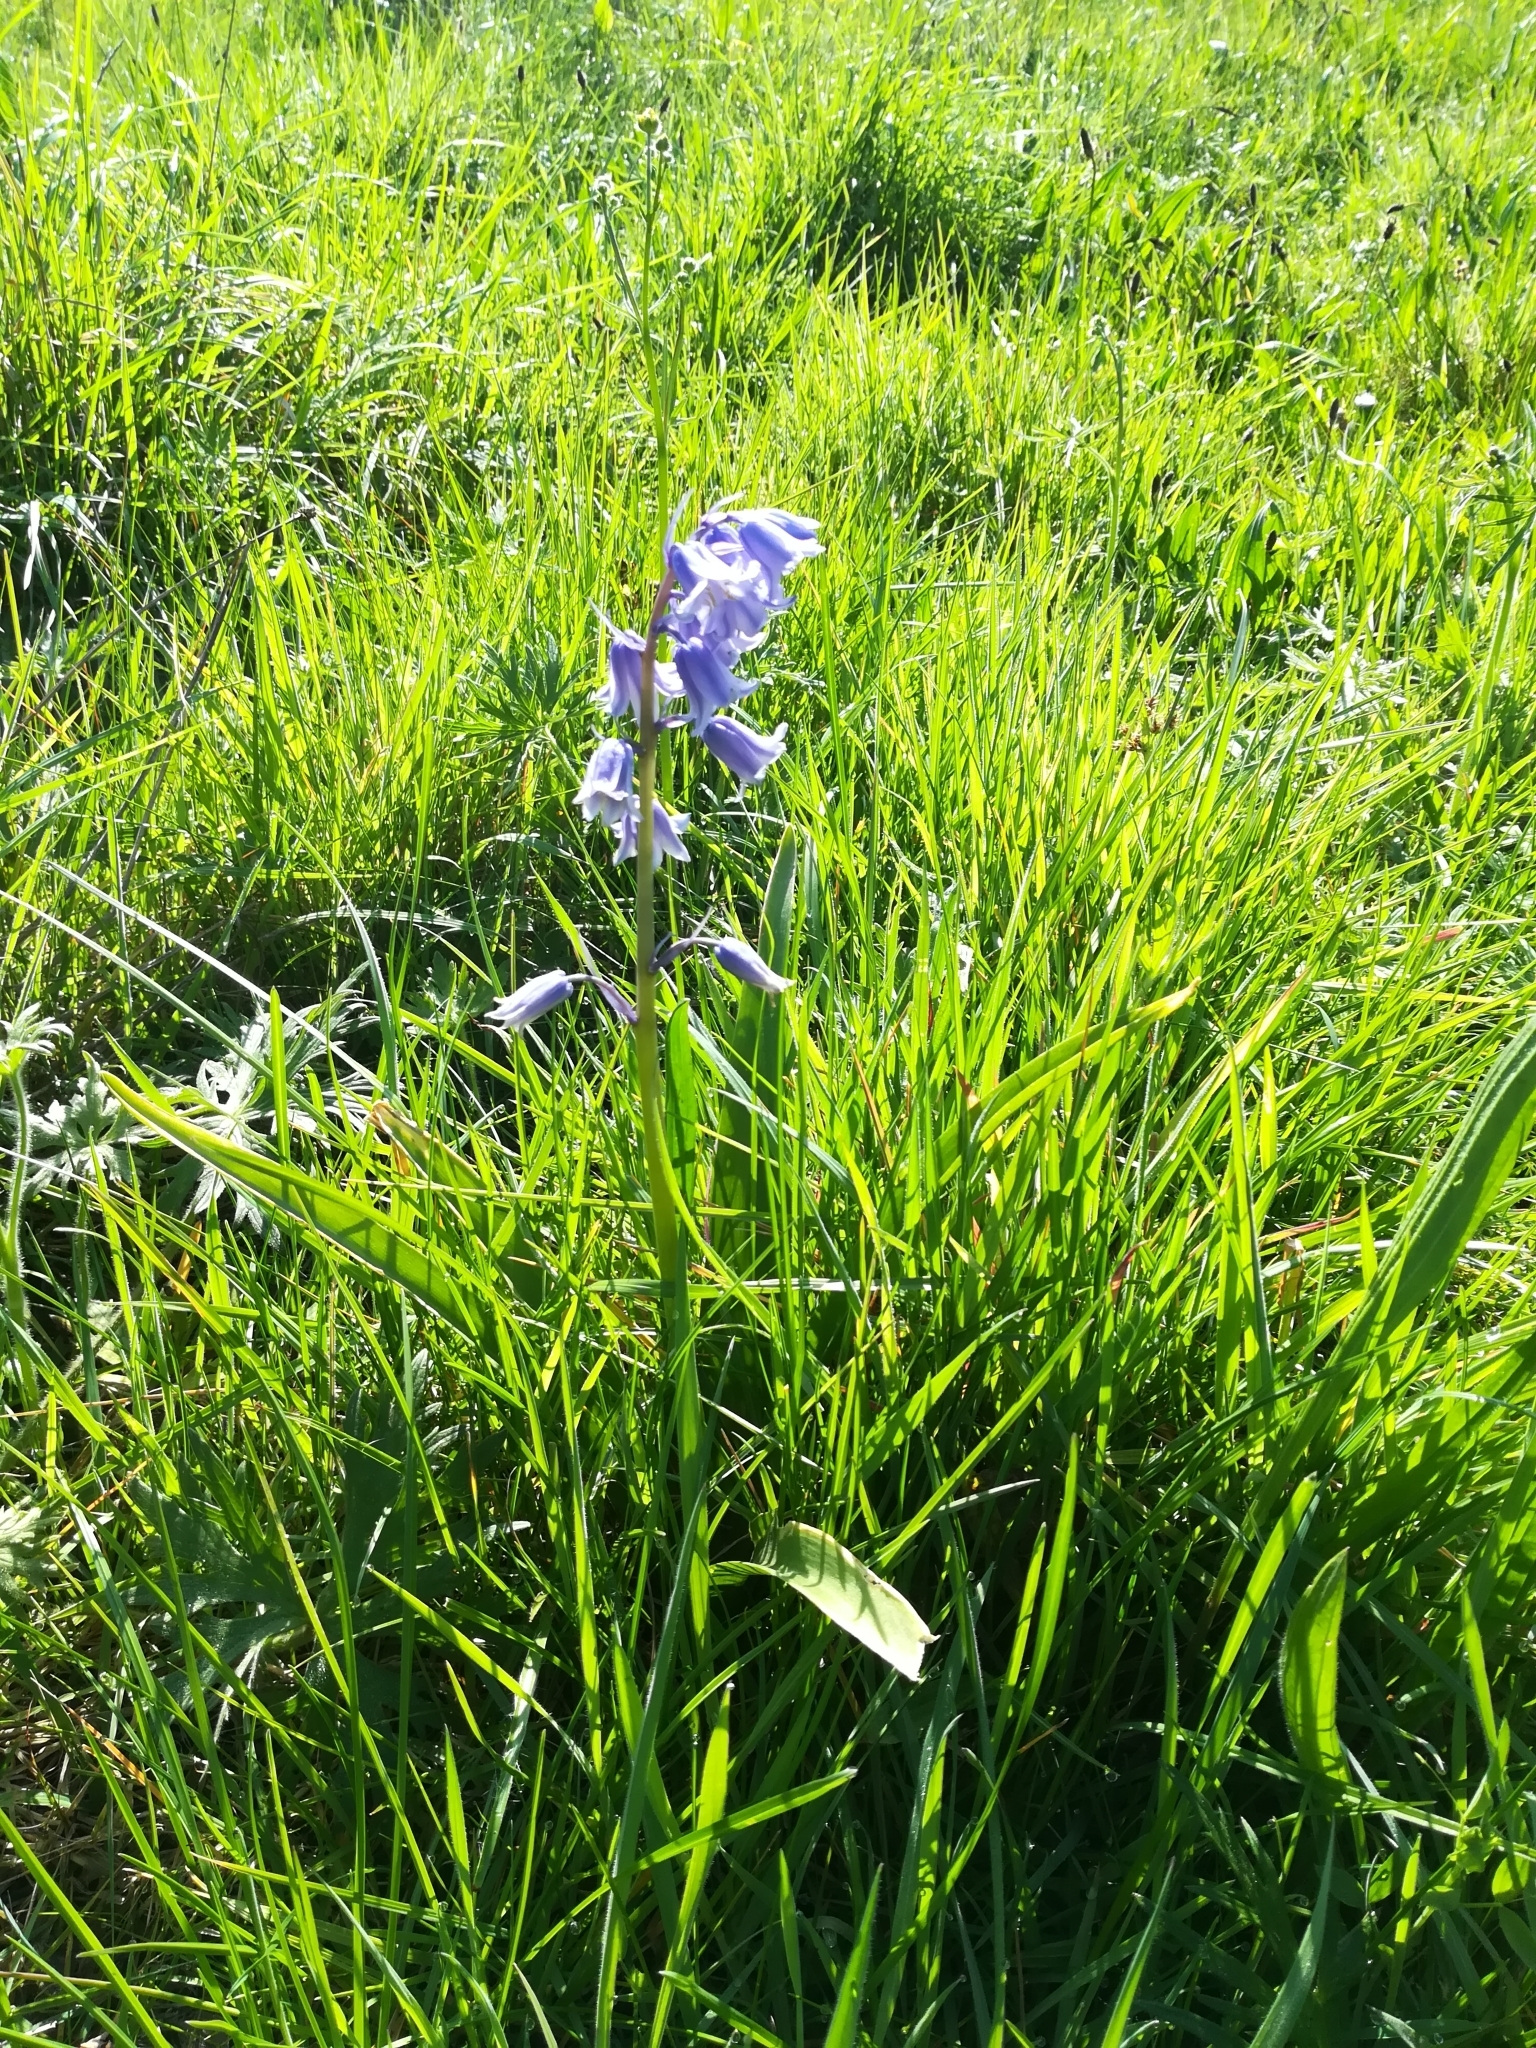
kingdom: Plantae
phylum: Tracheophyta
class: Liliopsida
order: Asparagales
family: Asparagaceae
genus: Hyacinthoides
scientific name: Hyacinthoides hispanica
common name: Spanish bluebell
